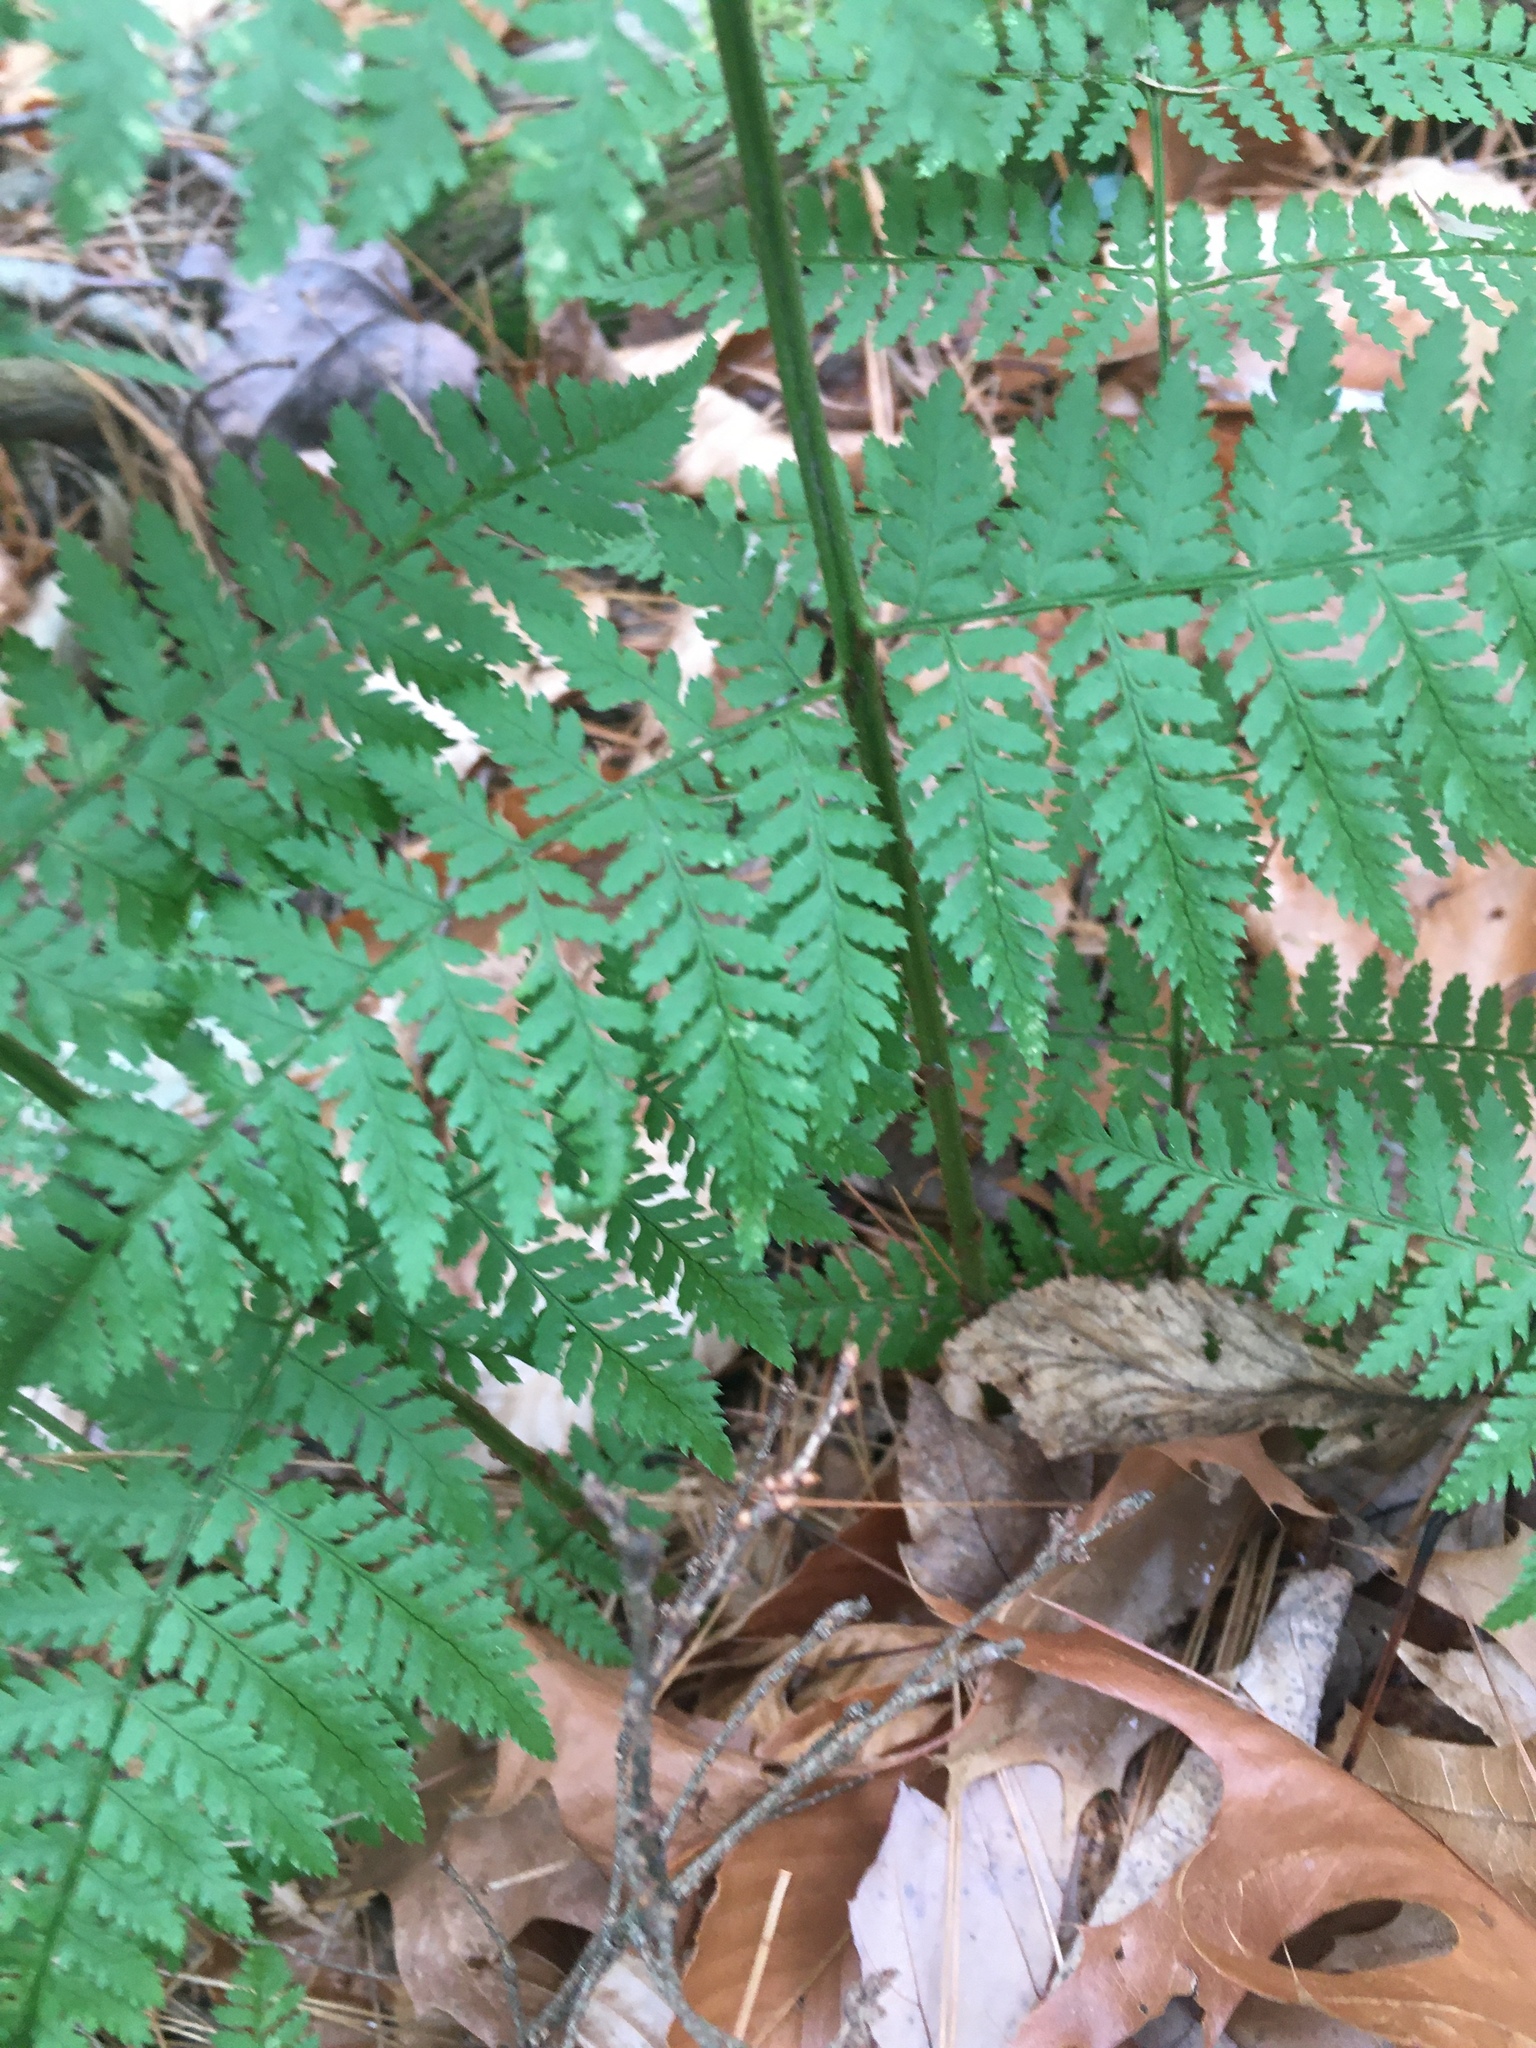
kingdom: Plantae
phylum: Tracheophyta
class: Polypodiopsida
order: Polypodiales
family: Dryopteridaceae
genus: Dryopteris
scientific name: Dryopteris intermedia
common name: Evergreen wood fern
